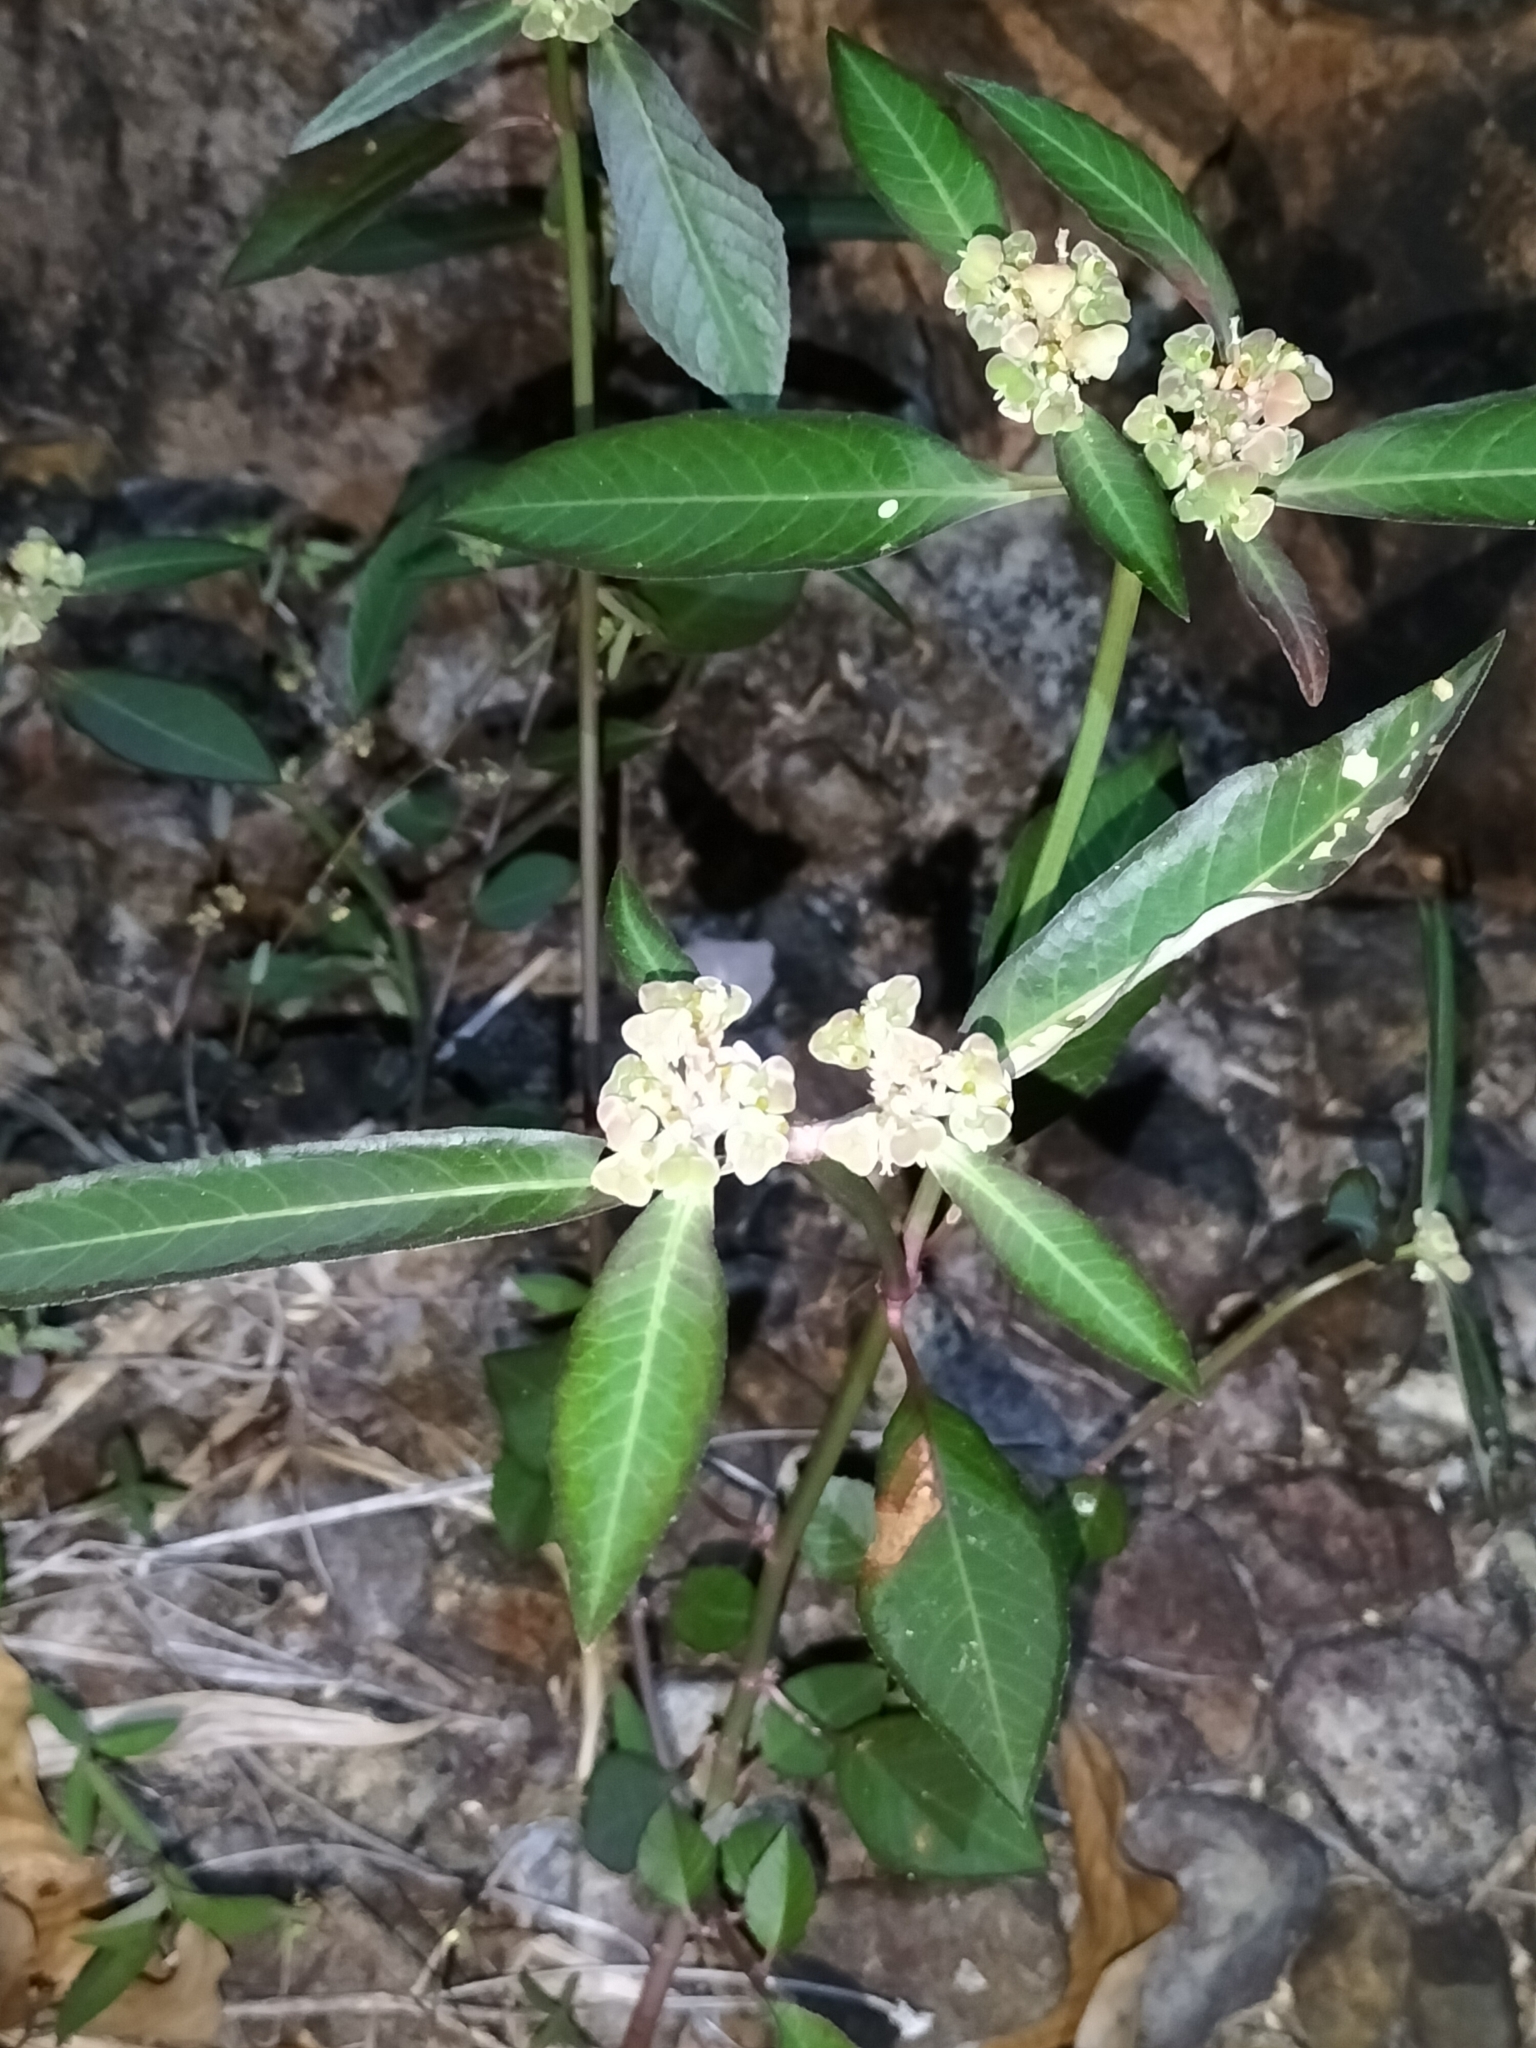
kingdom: Plantae
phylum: Tracheophyta
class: Magnoliopsida
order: Malpighiales
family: Euphorbiaceae
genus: Euphorbia
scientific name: Euphorbia heterophylla
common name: Mexican fireplant
